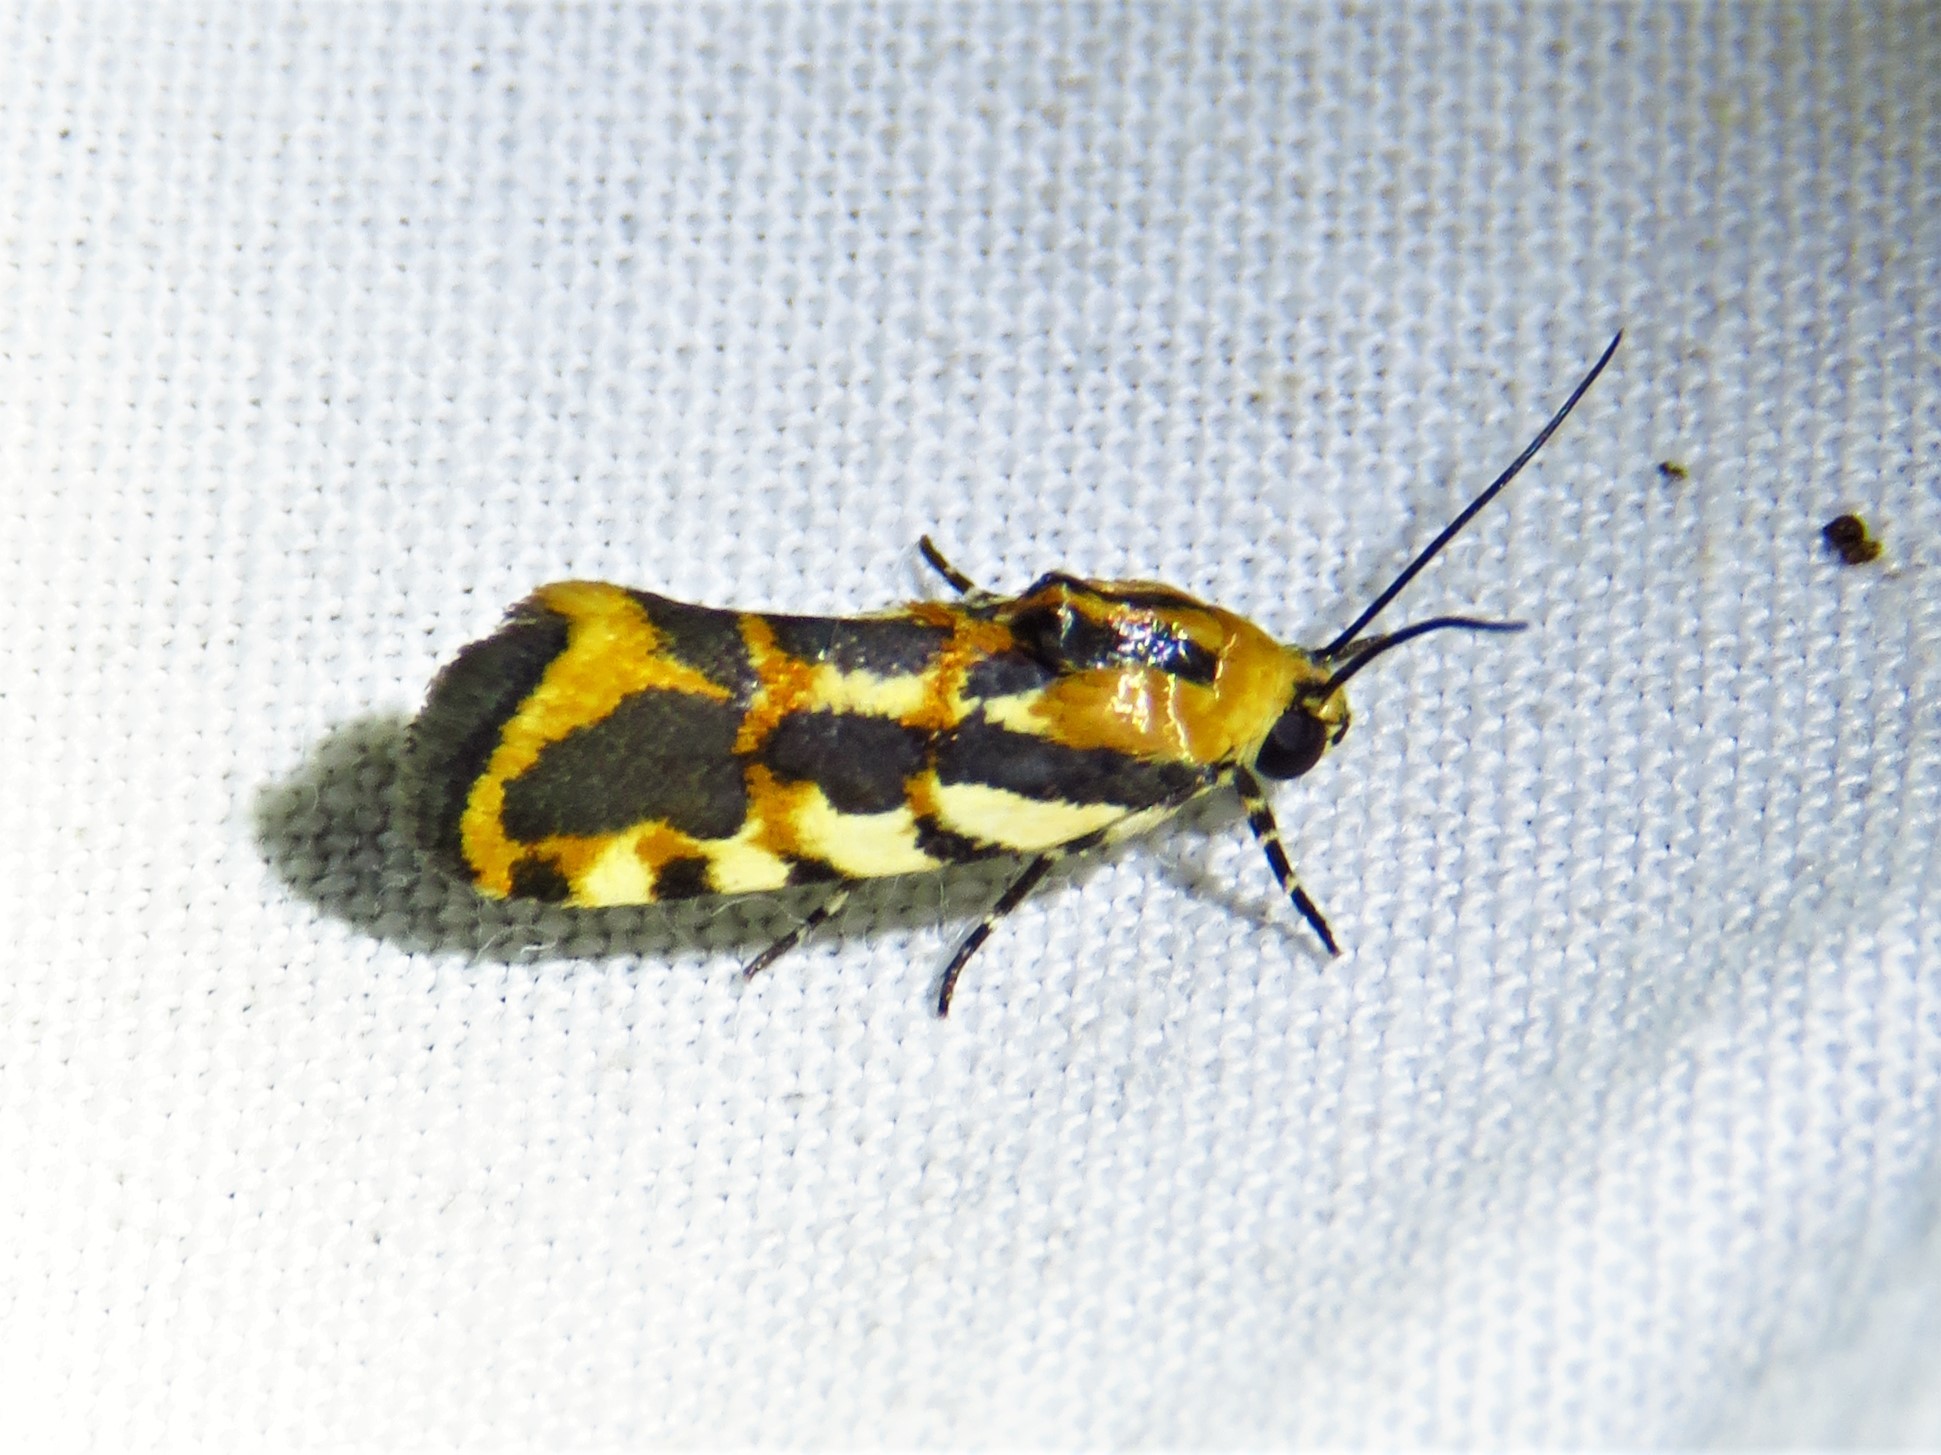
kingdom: Animalia
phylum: Arthropoda
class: Insecta
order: Lepidoptera
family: Noctuidae
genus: Acontia
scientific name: Acontia leo
